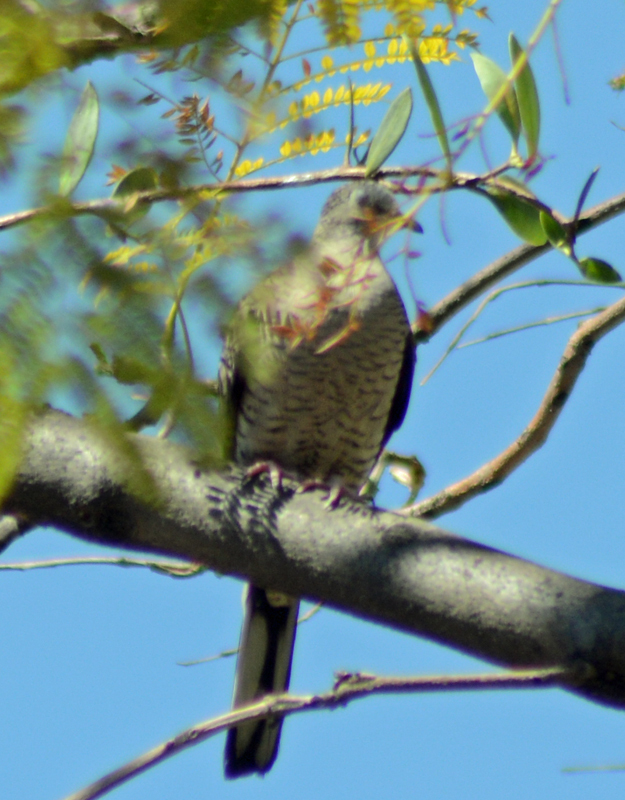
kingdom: Animalia
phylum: Chordata
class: Aves
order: Columbiformes
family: Columbidae
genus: Columbina
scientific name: Columbina inca
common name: Inca dove
